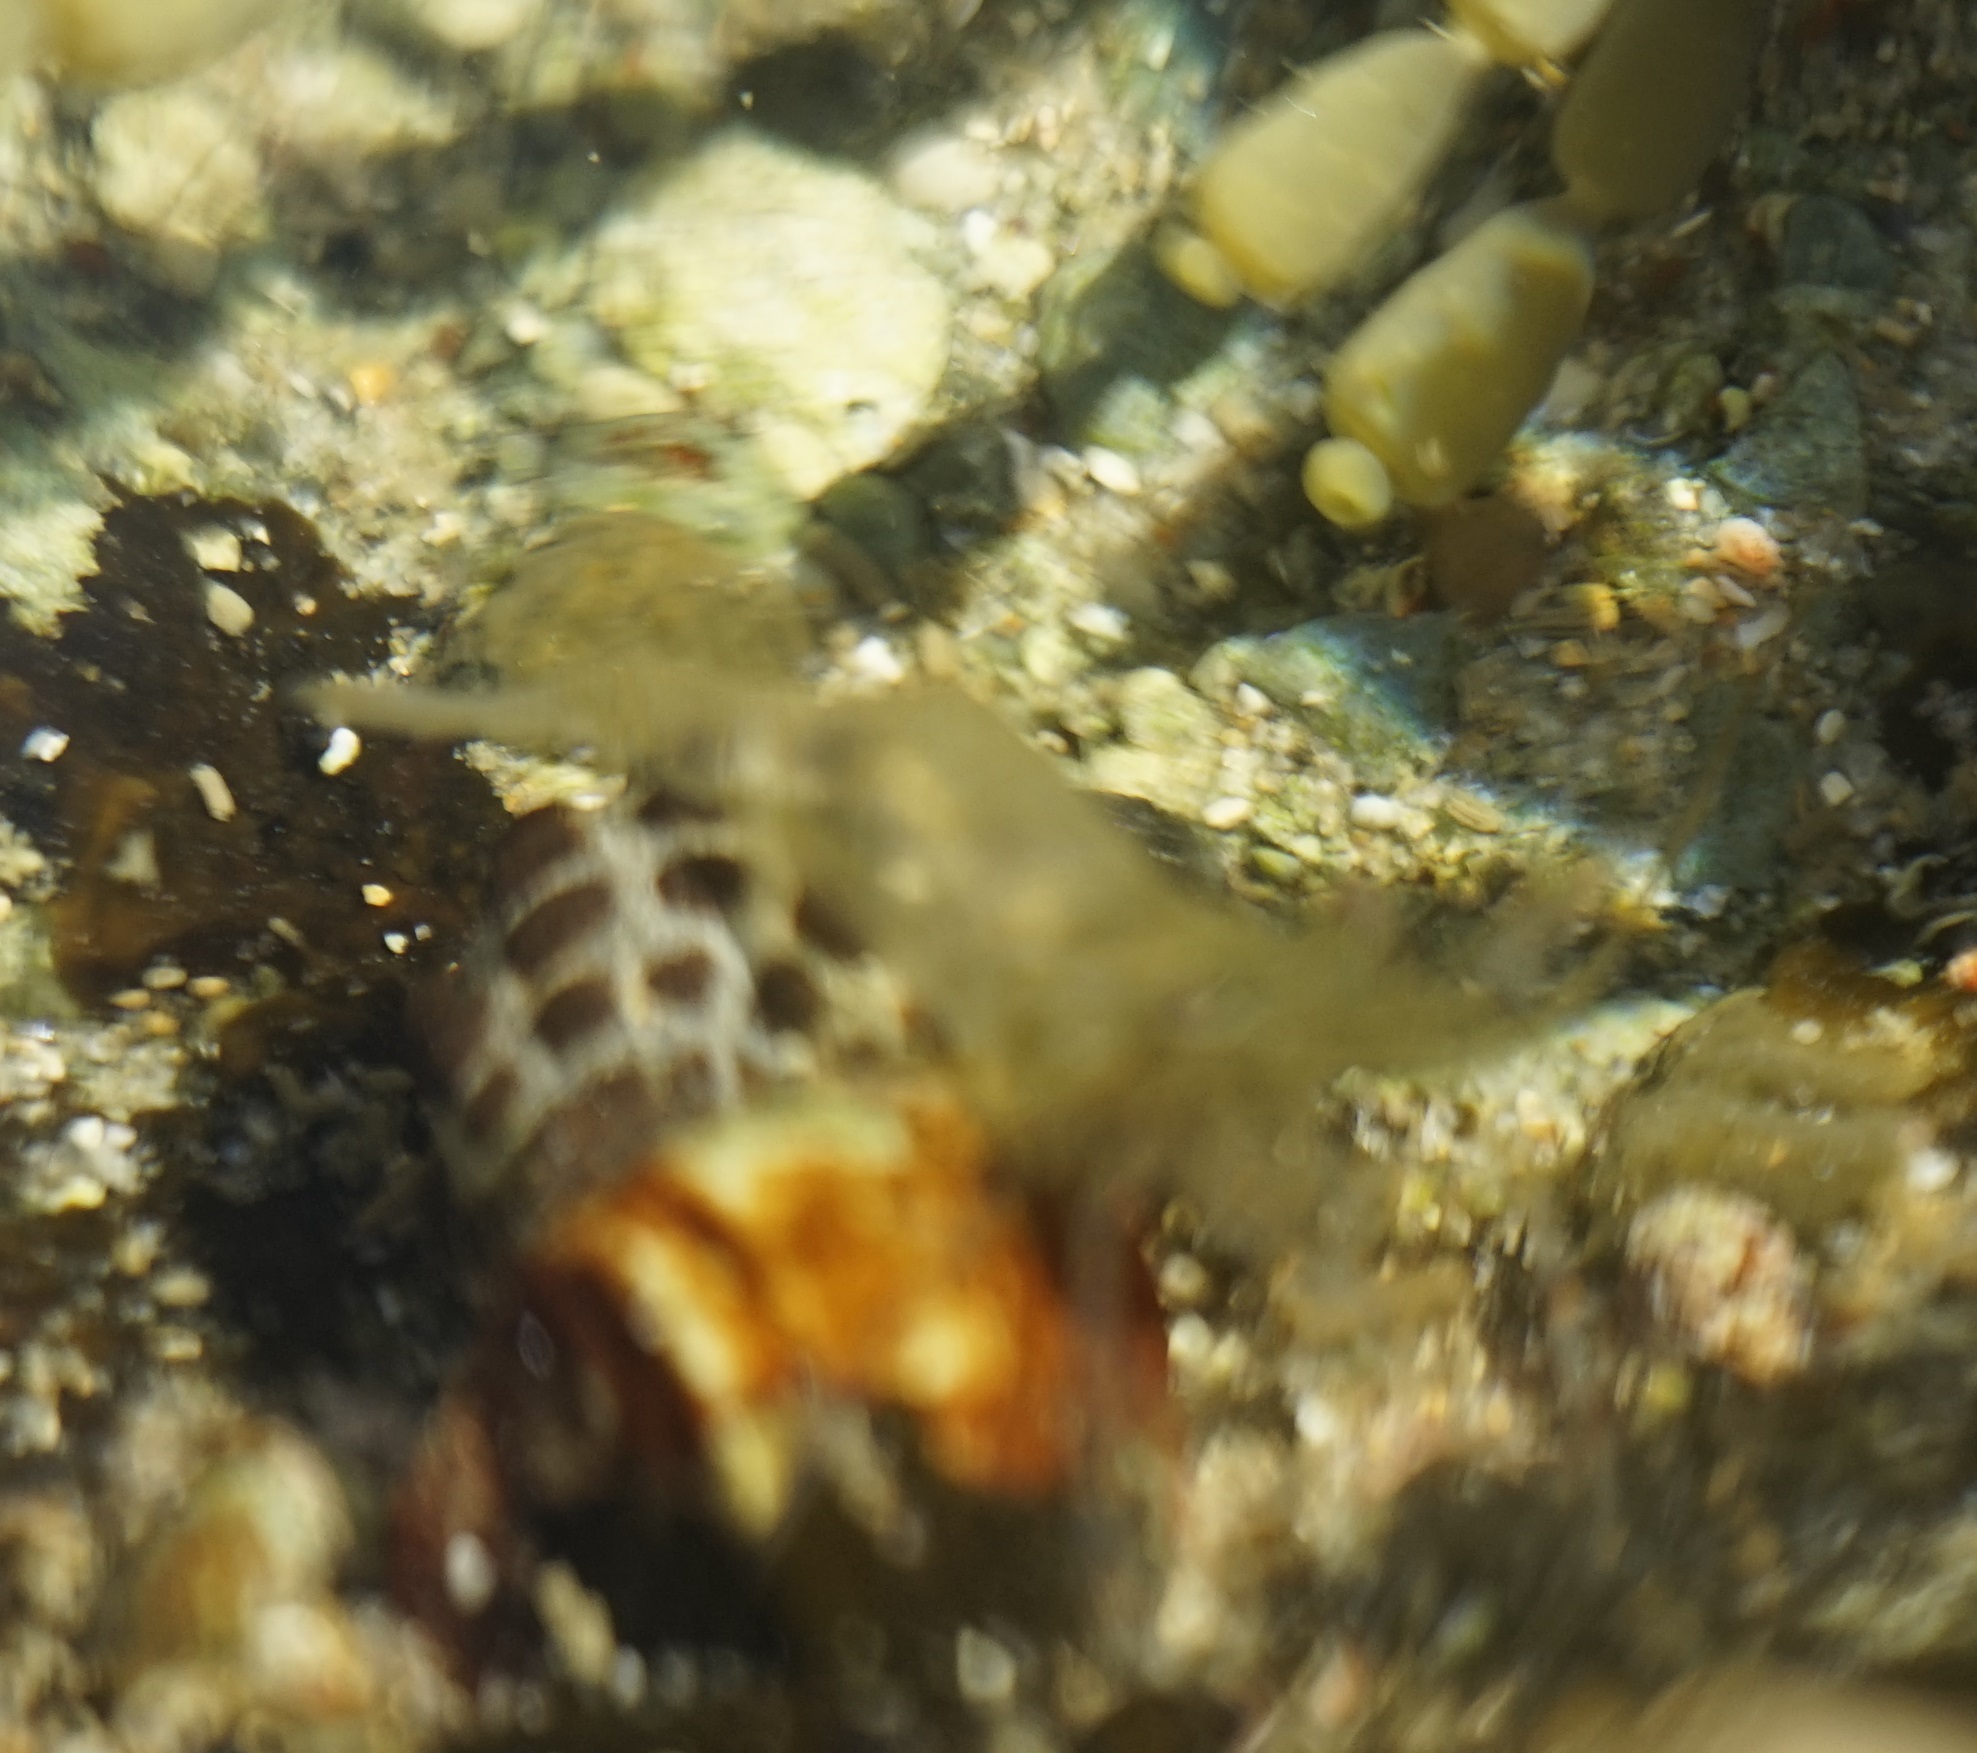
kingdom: Animalia
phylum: Arthropoda
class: Malacostraca
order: Decapoda
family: Palaemonidae
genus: Palaemon
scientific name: Palaemon serenus
